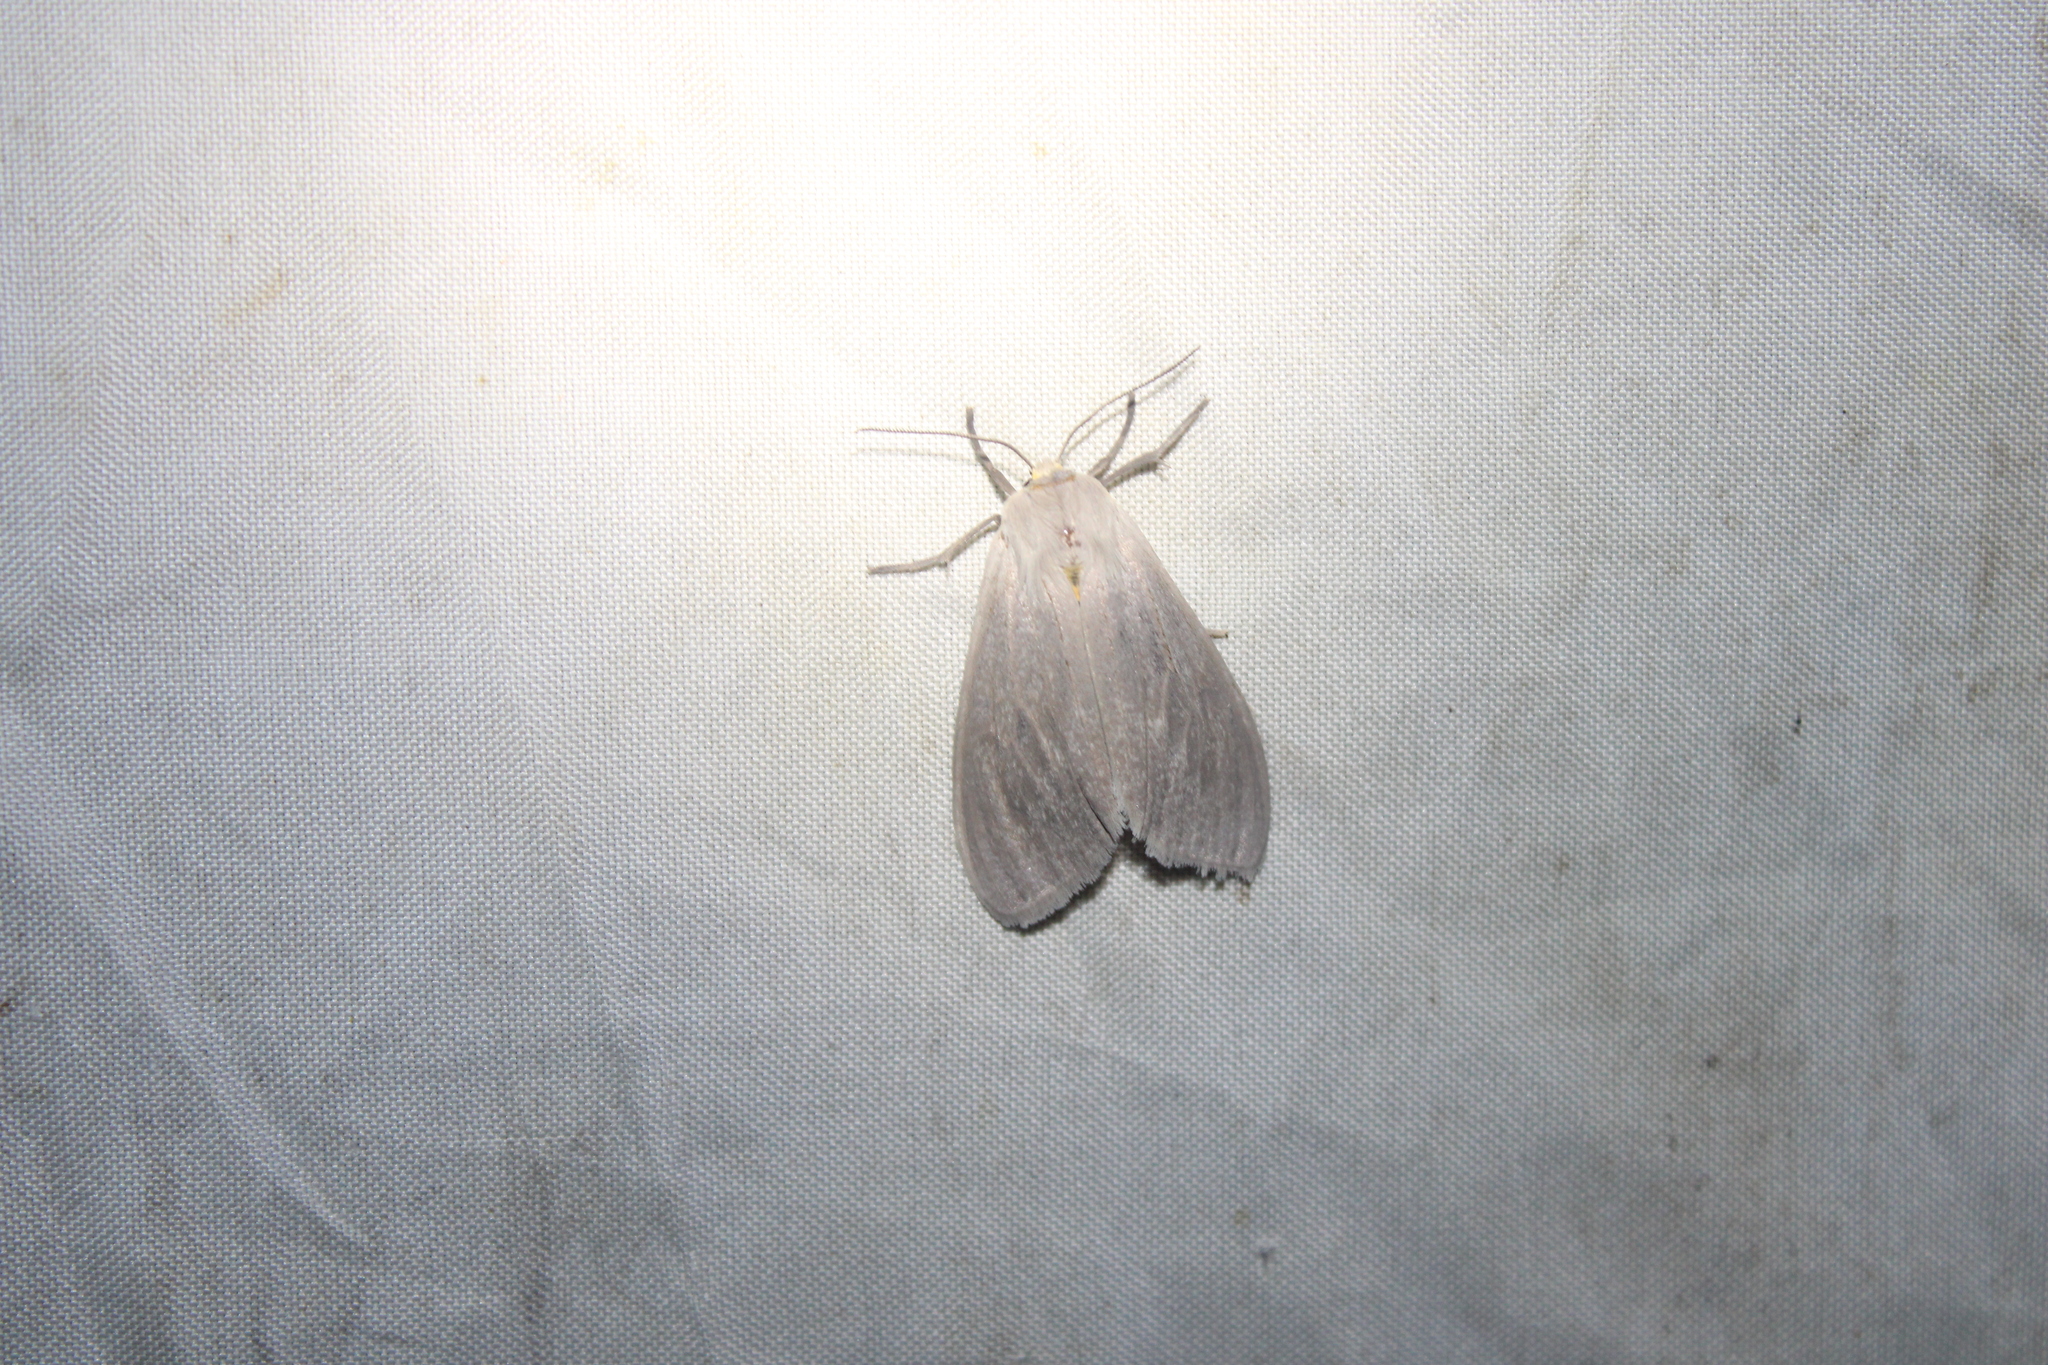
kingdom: Animalia
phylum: Arthropoda
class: Insecta
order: Lepidoptera
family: Erebidae
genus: Euchaetes
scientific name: Euchaetes egle
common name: Milkweed tussock moth
